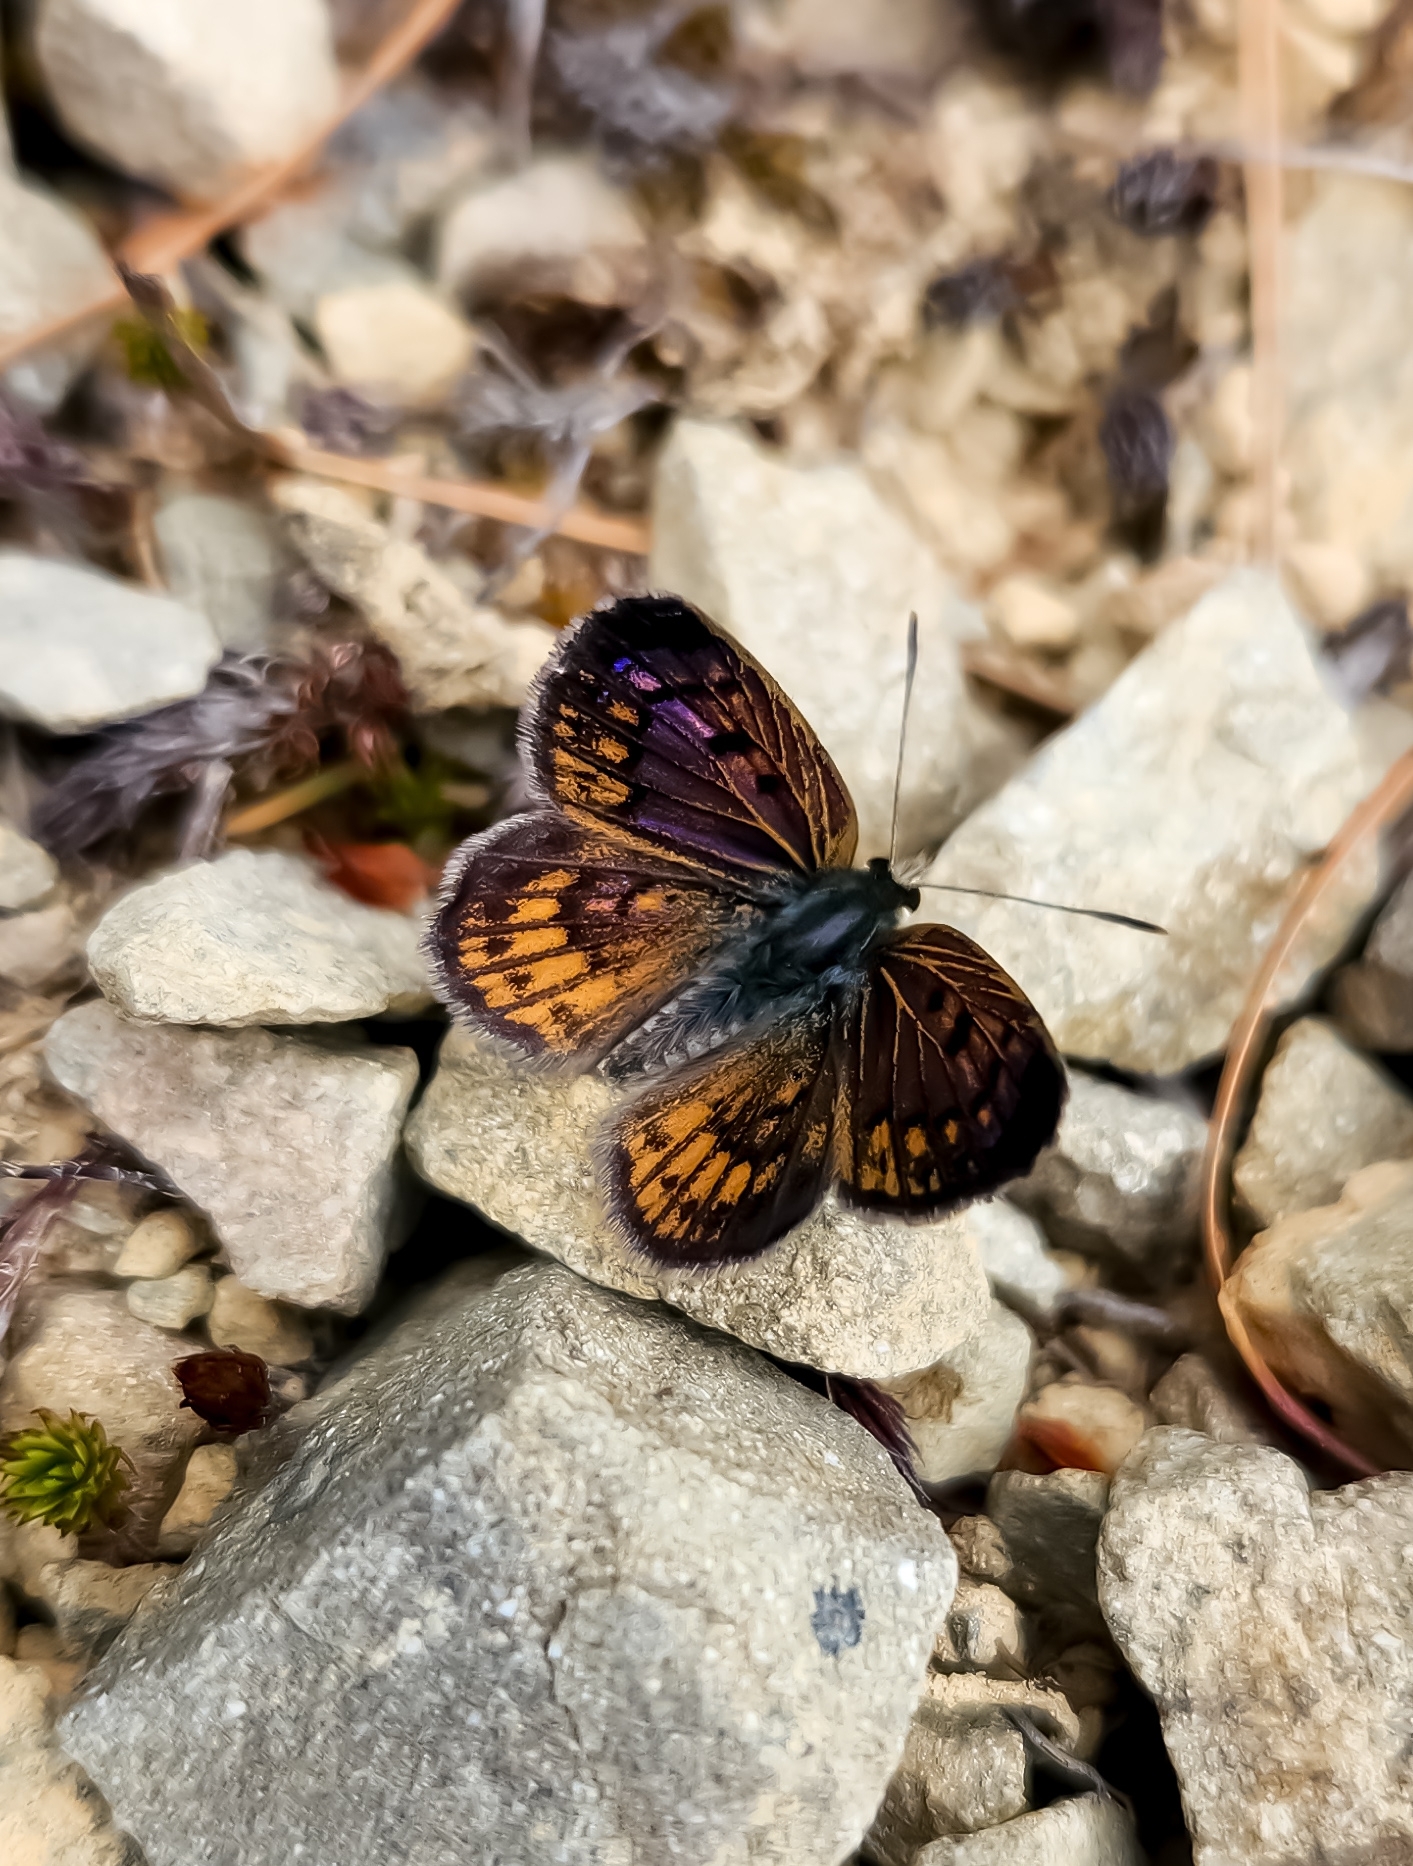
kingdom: Animalia
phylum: Arthropoda
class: Insecta
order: Lepidoptera
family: Lycaenidae
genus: Lycaena
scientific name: Lycaena tama
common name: Canterbury alpine boulder copper
